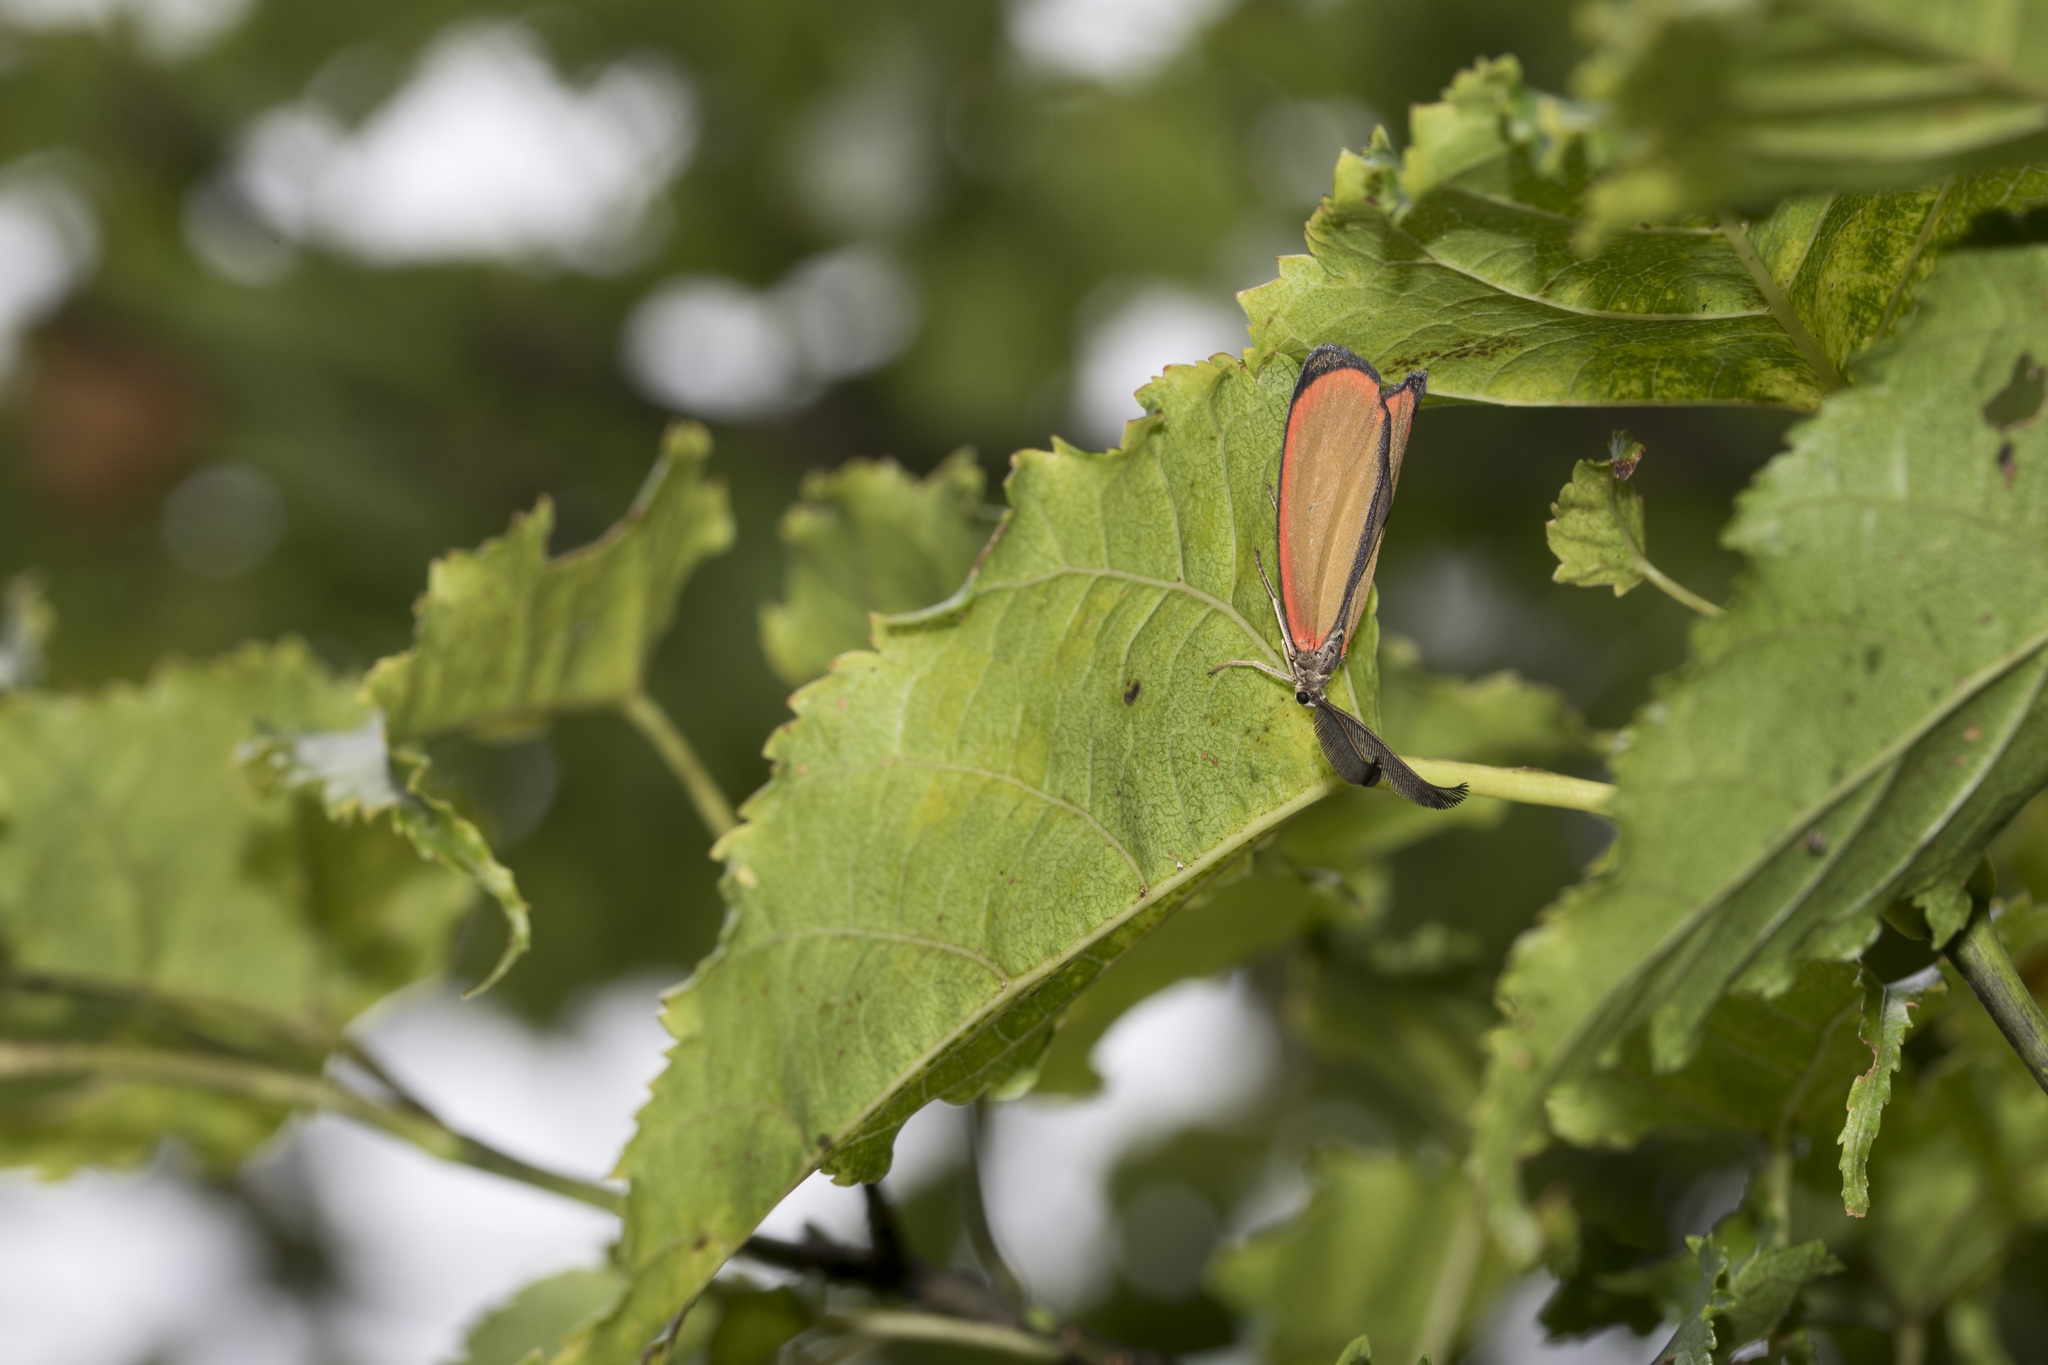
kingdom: Animalia
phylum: Arthropoda
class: Insecta
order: Lepidoptera
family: Zygaenidae
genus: Rhodopsona
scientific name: Rhodopsona marginatus
